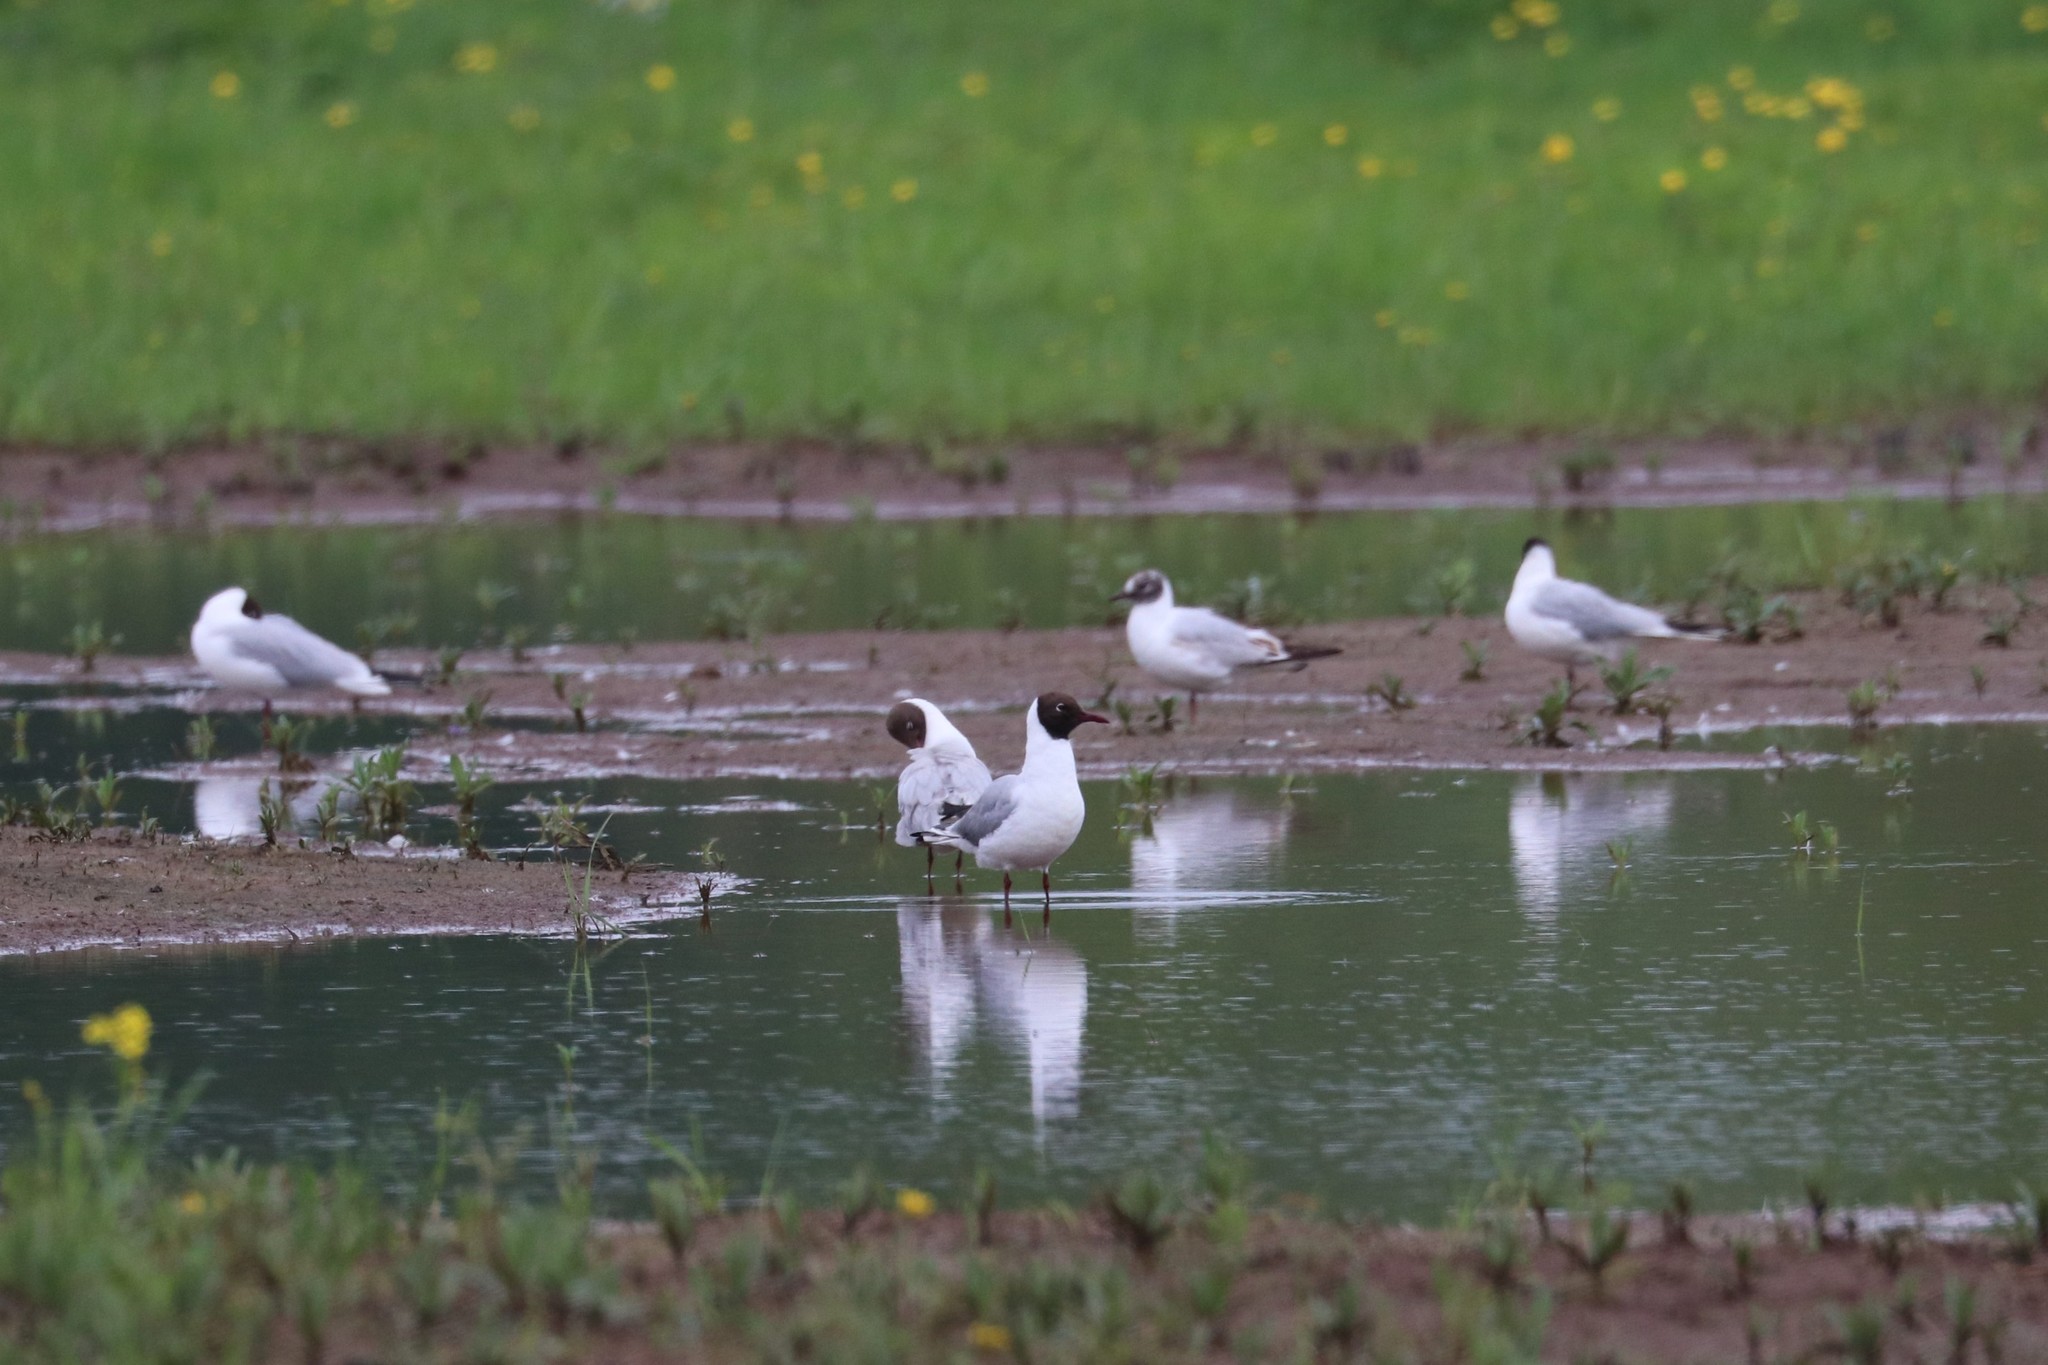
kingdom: Animalia
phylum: Chordata
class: Aves
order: Charadriiformes
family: Laridae
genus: Chroicocephalus
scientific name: Chroicocephalus ridibundus
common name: Black-headed gull
